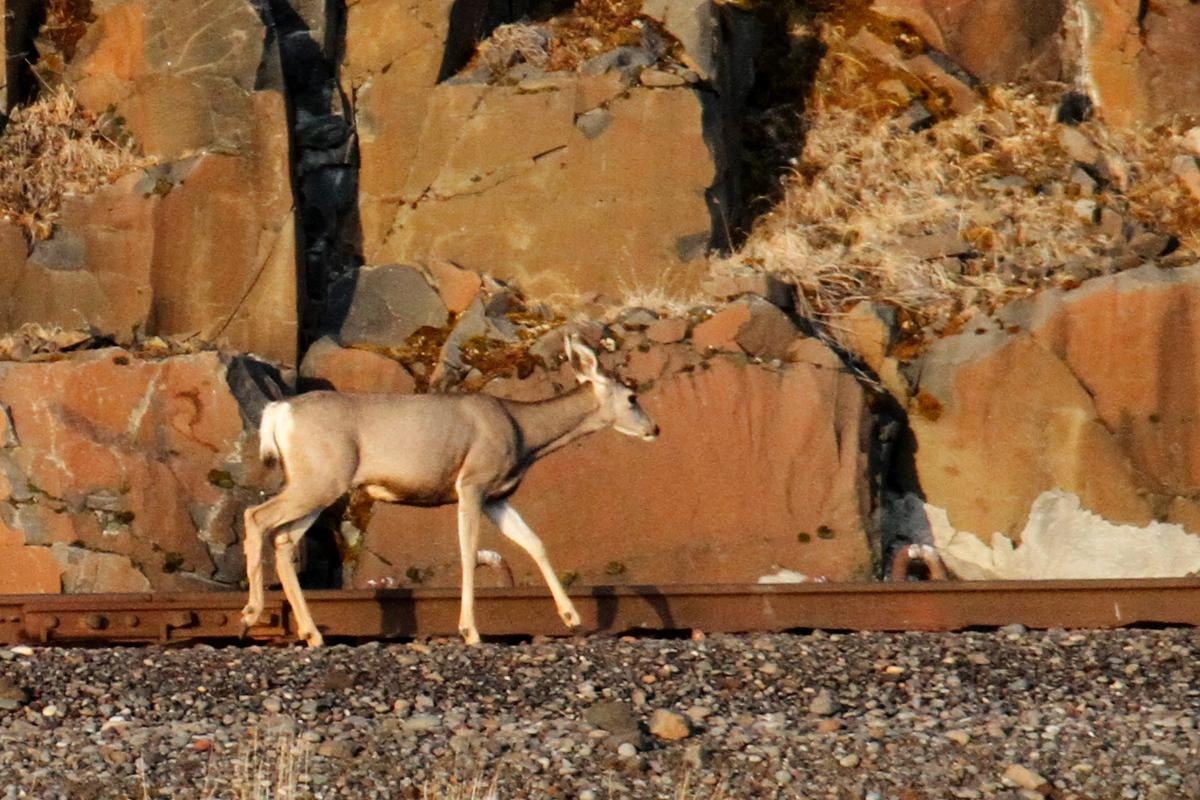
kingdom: Animalia
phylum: Chordata
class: Mammalia
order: Artiodactyla
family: Cervidae
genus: Odocoileus
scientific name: Odocoileus hemionus
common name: Mule deer
